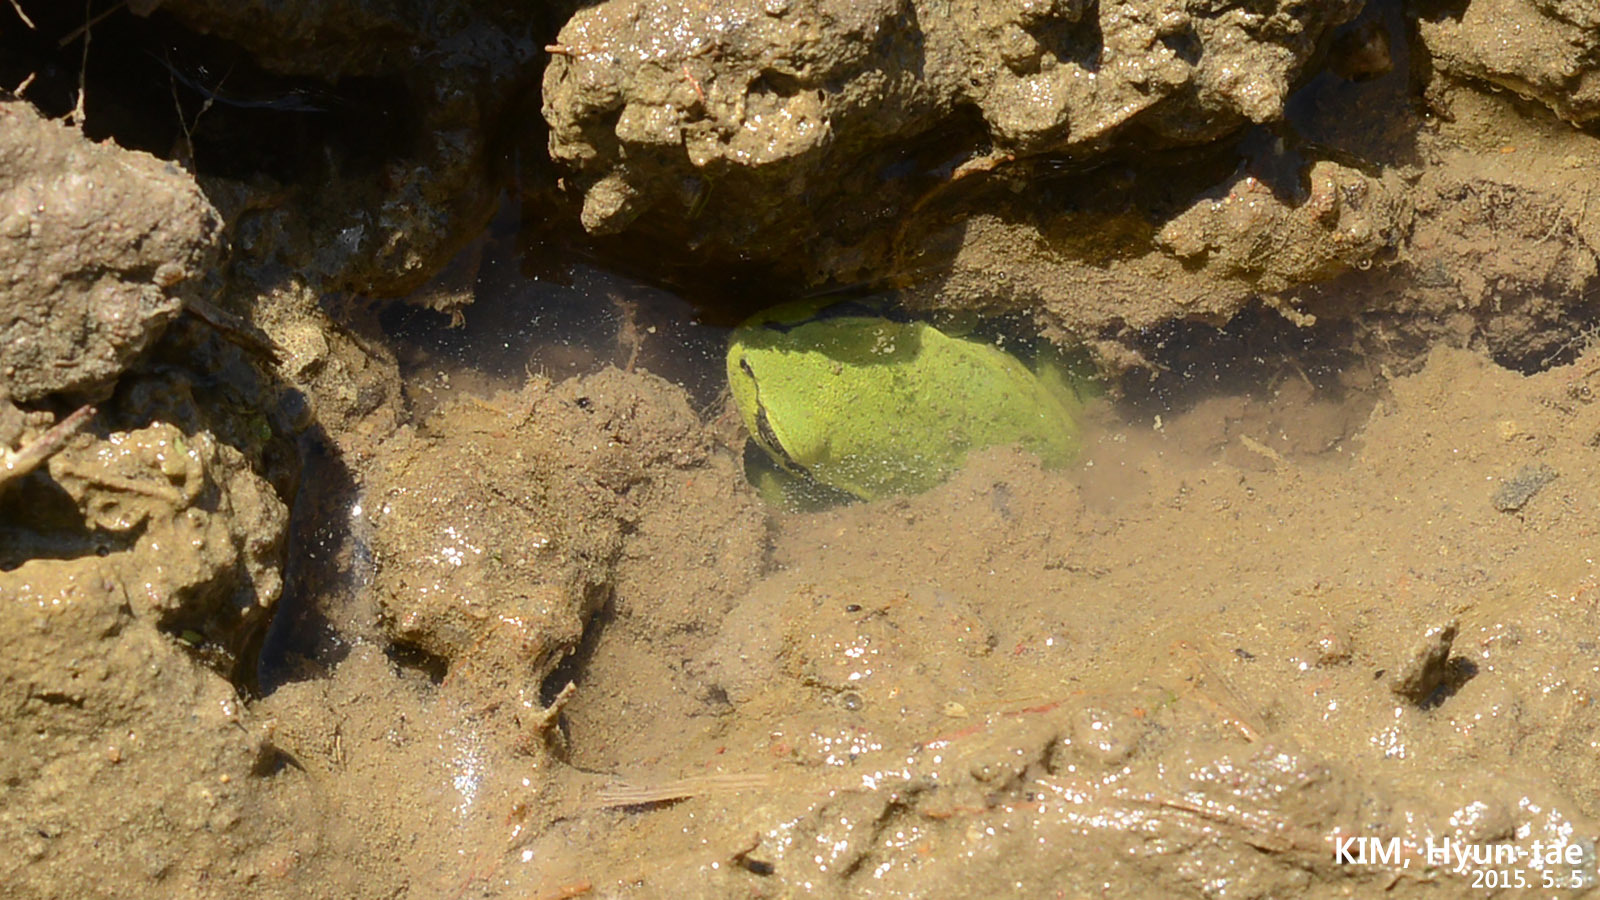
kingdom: Animalia
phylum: Chordata
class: Amphibia
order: Anura
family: Hylidae
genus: Dryophytes
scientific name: Dryophytes immaculatus
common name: North china treefrog
